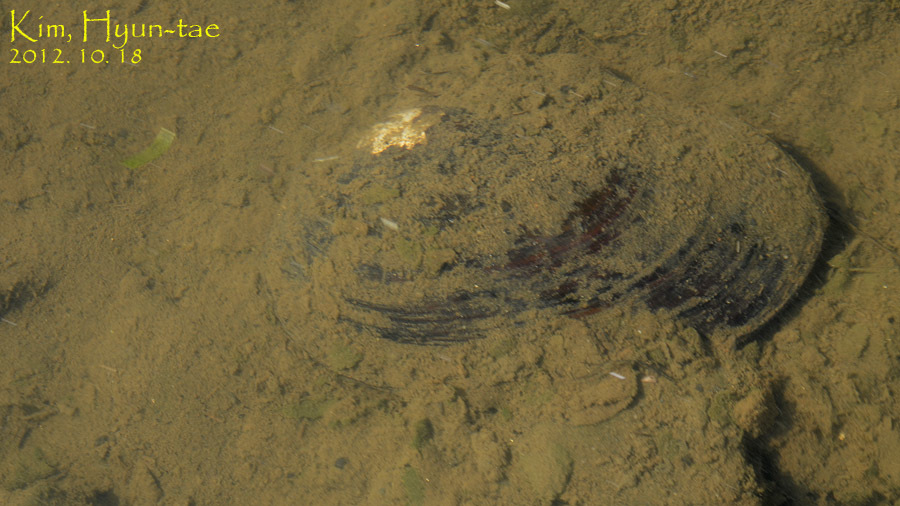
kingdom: Animalia
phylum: Mollusca
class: Bivalvia
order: Unionida
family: Unionidae
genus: Cristaria
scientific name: Cristaria plicata
